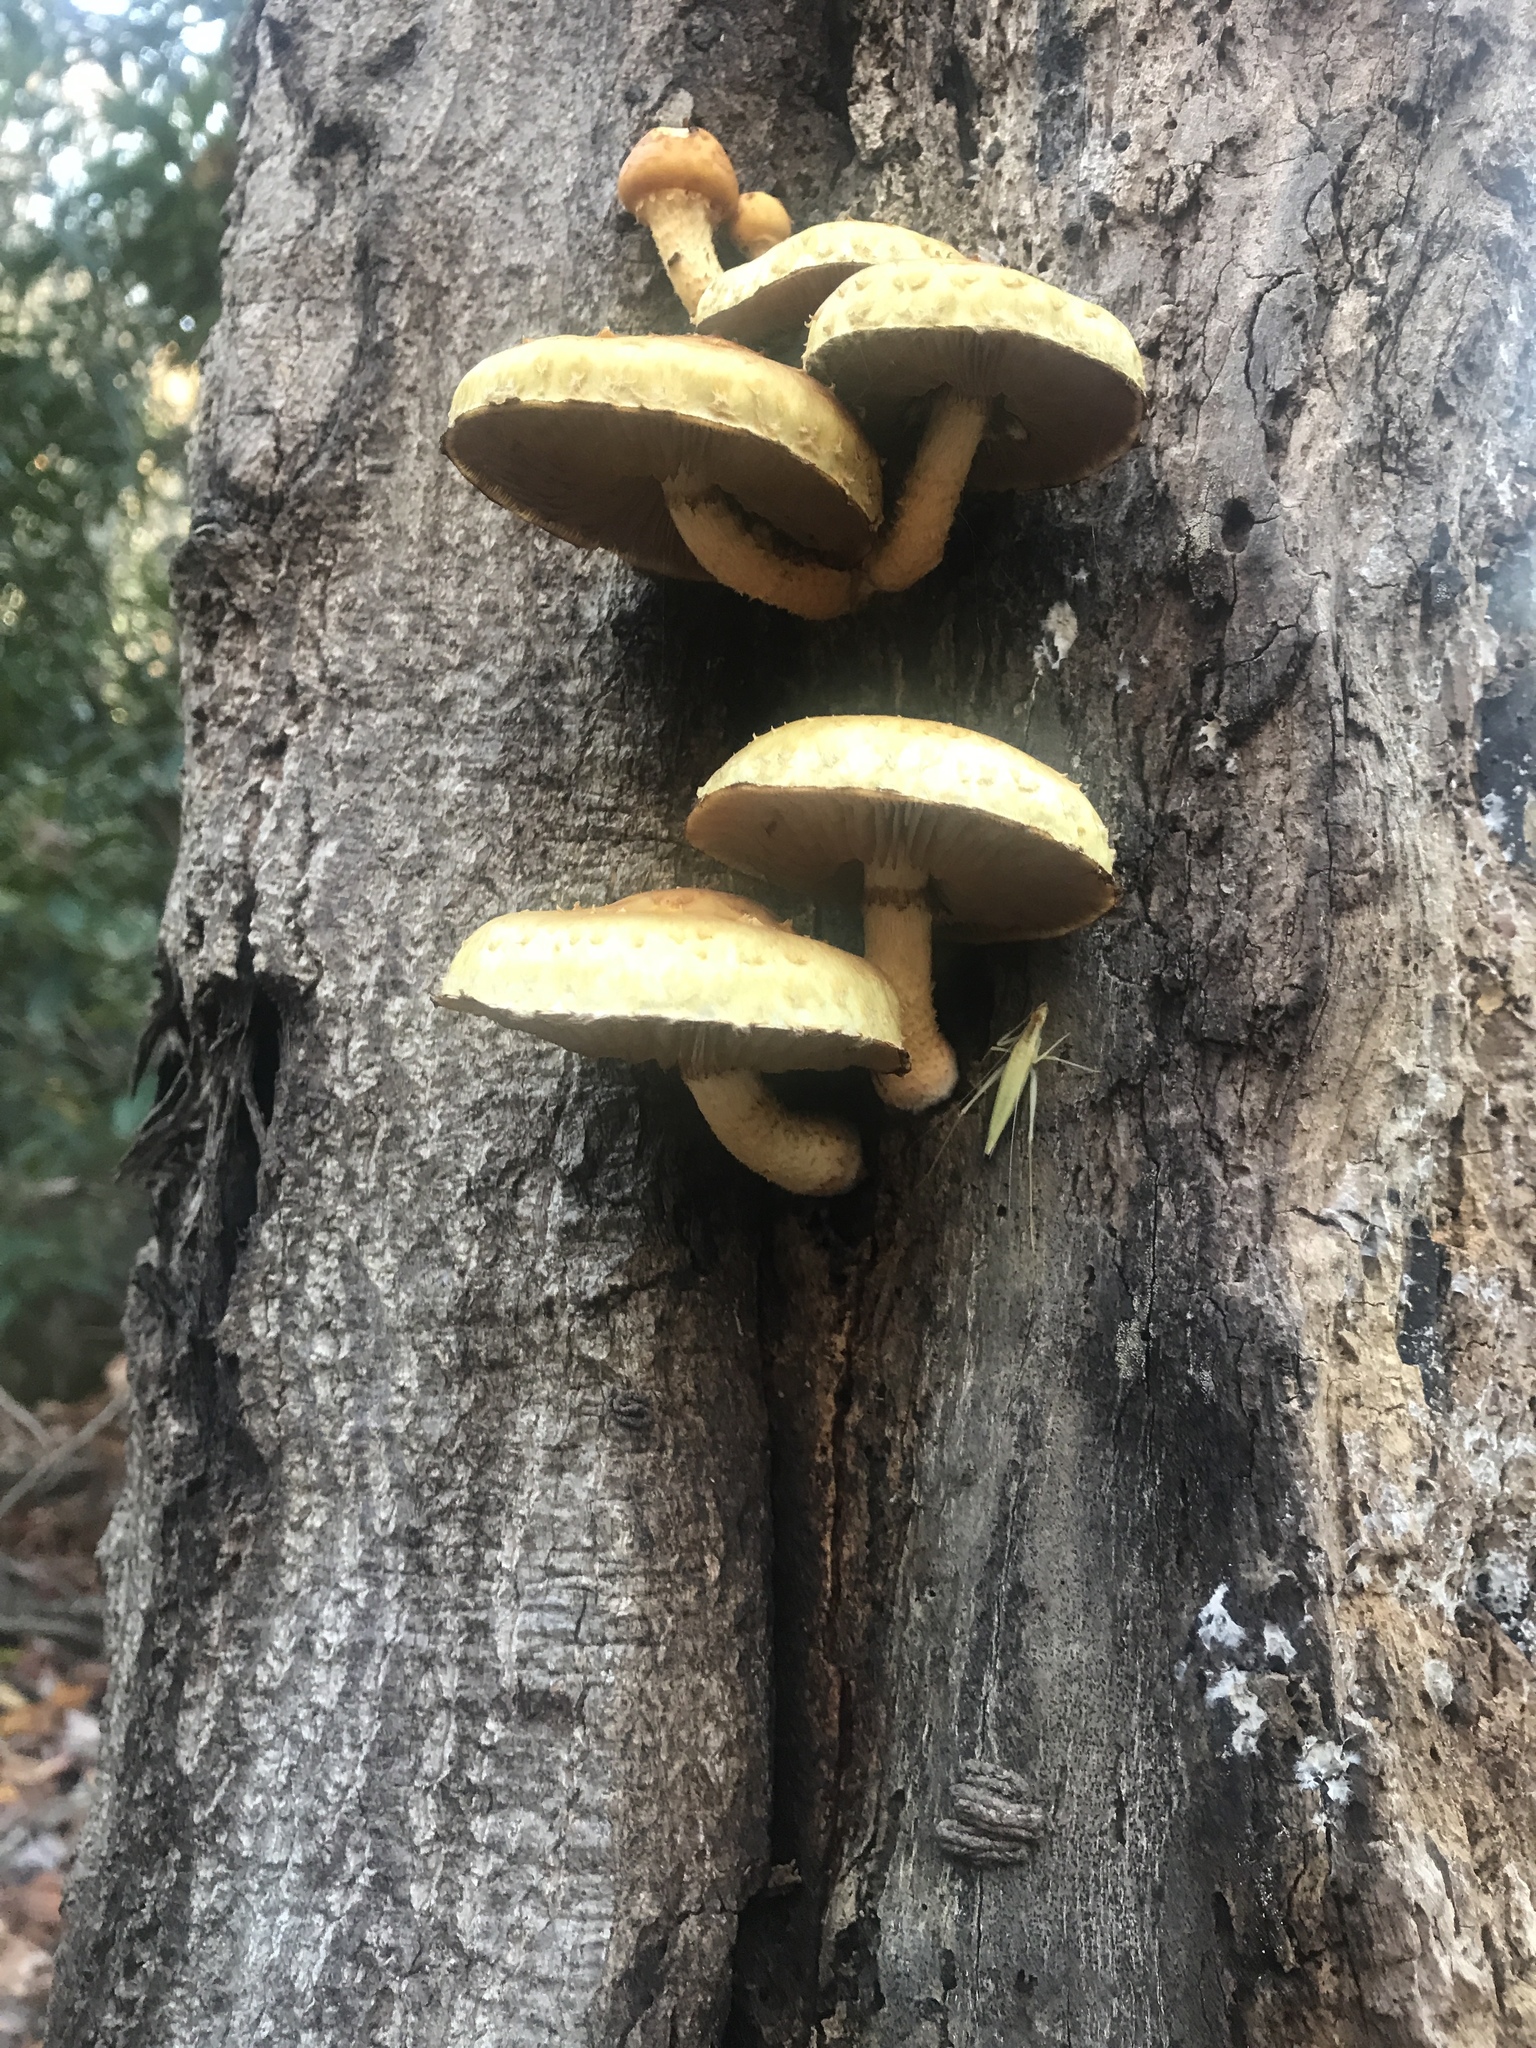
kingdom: Fungi
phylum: Basidiomycota
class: Agaricomycetes
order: Agaricales
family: Strophariaceae
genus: Pholiota
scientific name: Pholiota aurivella
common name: Golden scalycap
